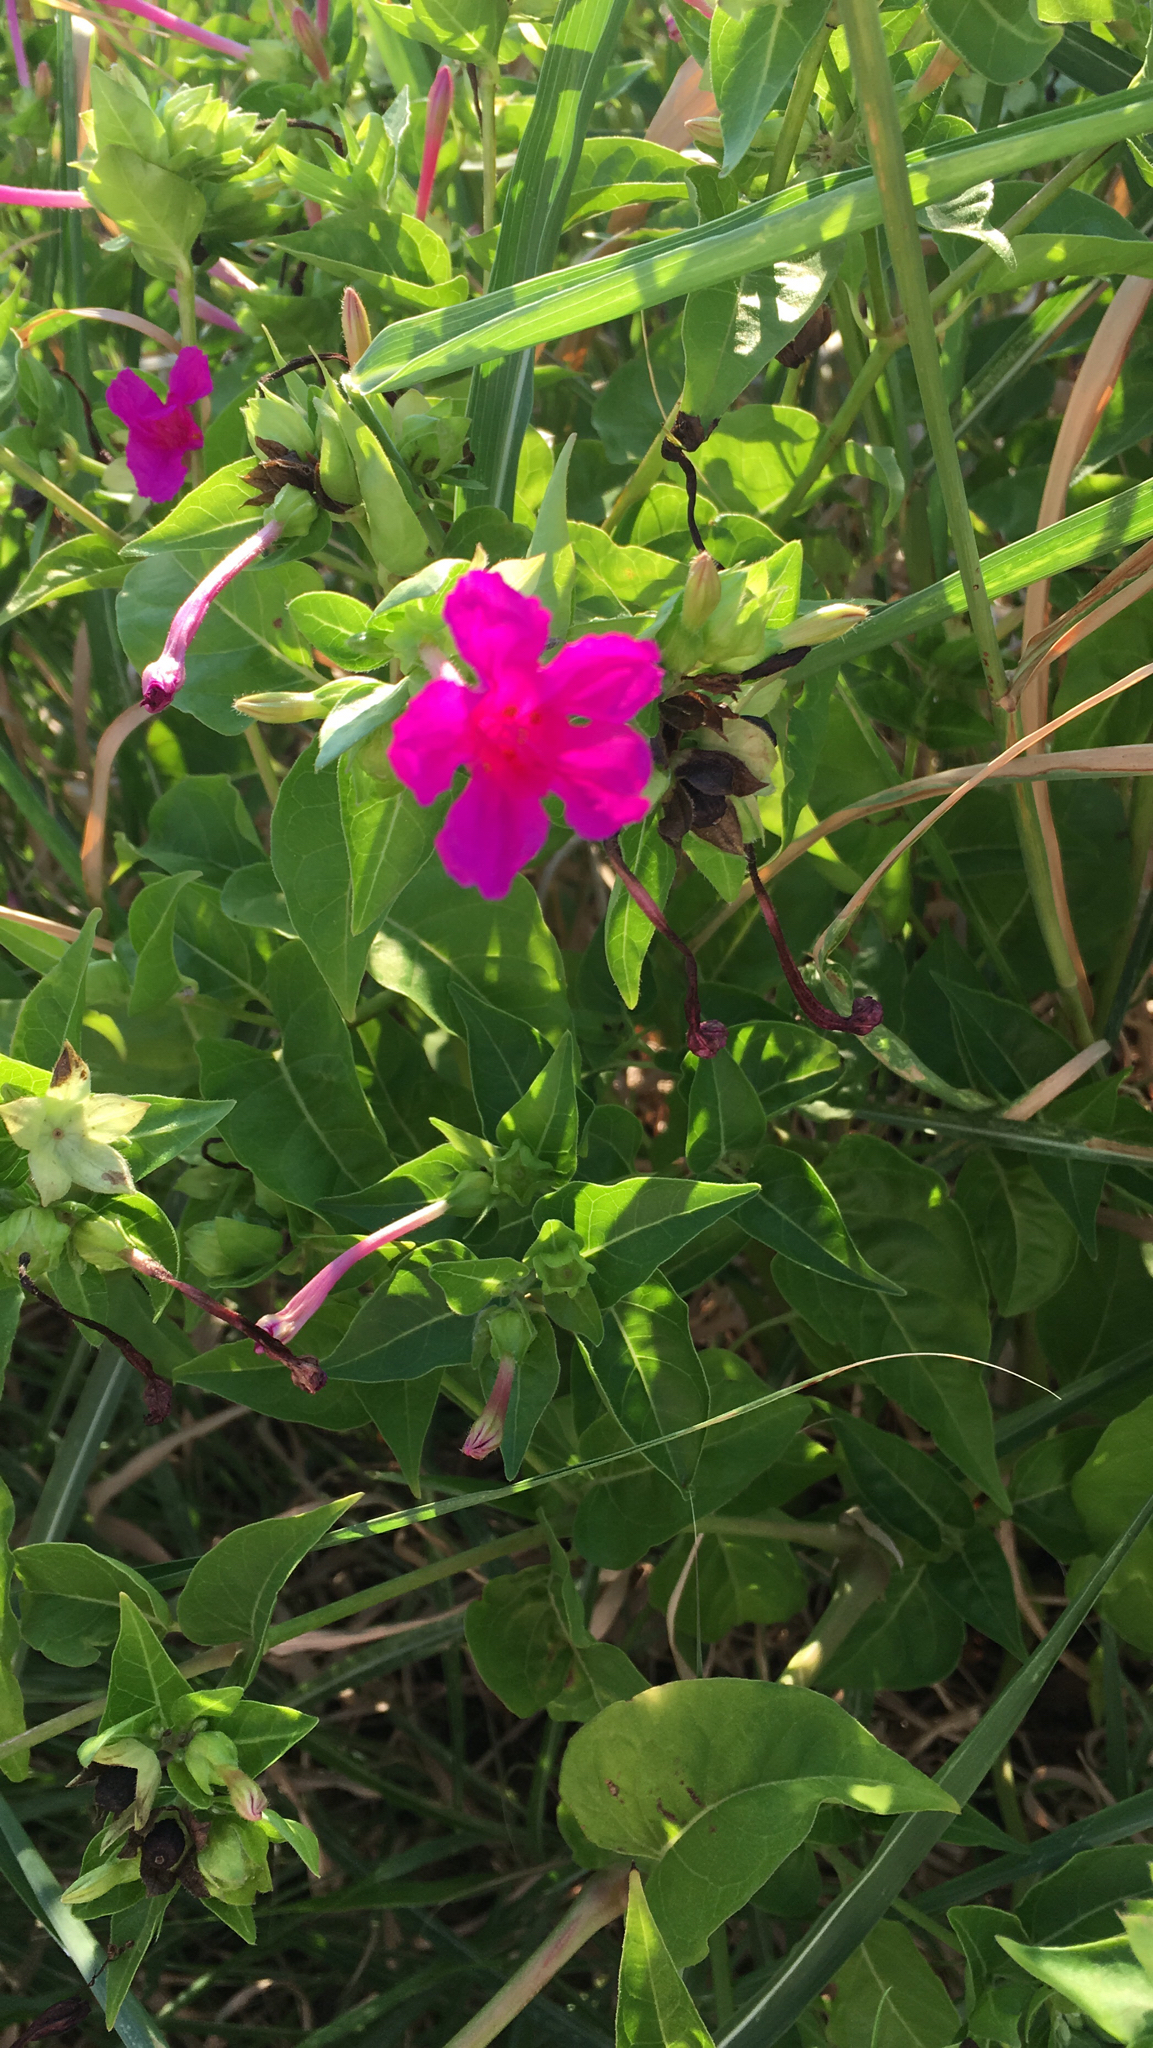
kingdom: Plantae
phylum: Tracheophyta
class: Magnoliopsida
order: Caryophyllales
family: Nyctaginaceae
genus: Mirabilis
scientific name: Mirabilis jalapa
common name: Marvel-of-peru
